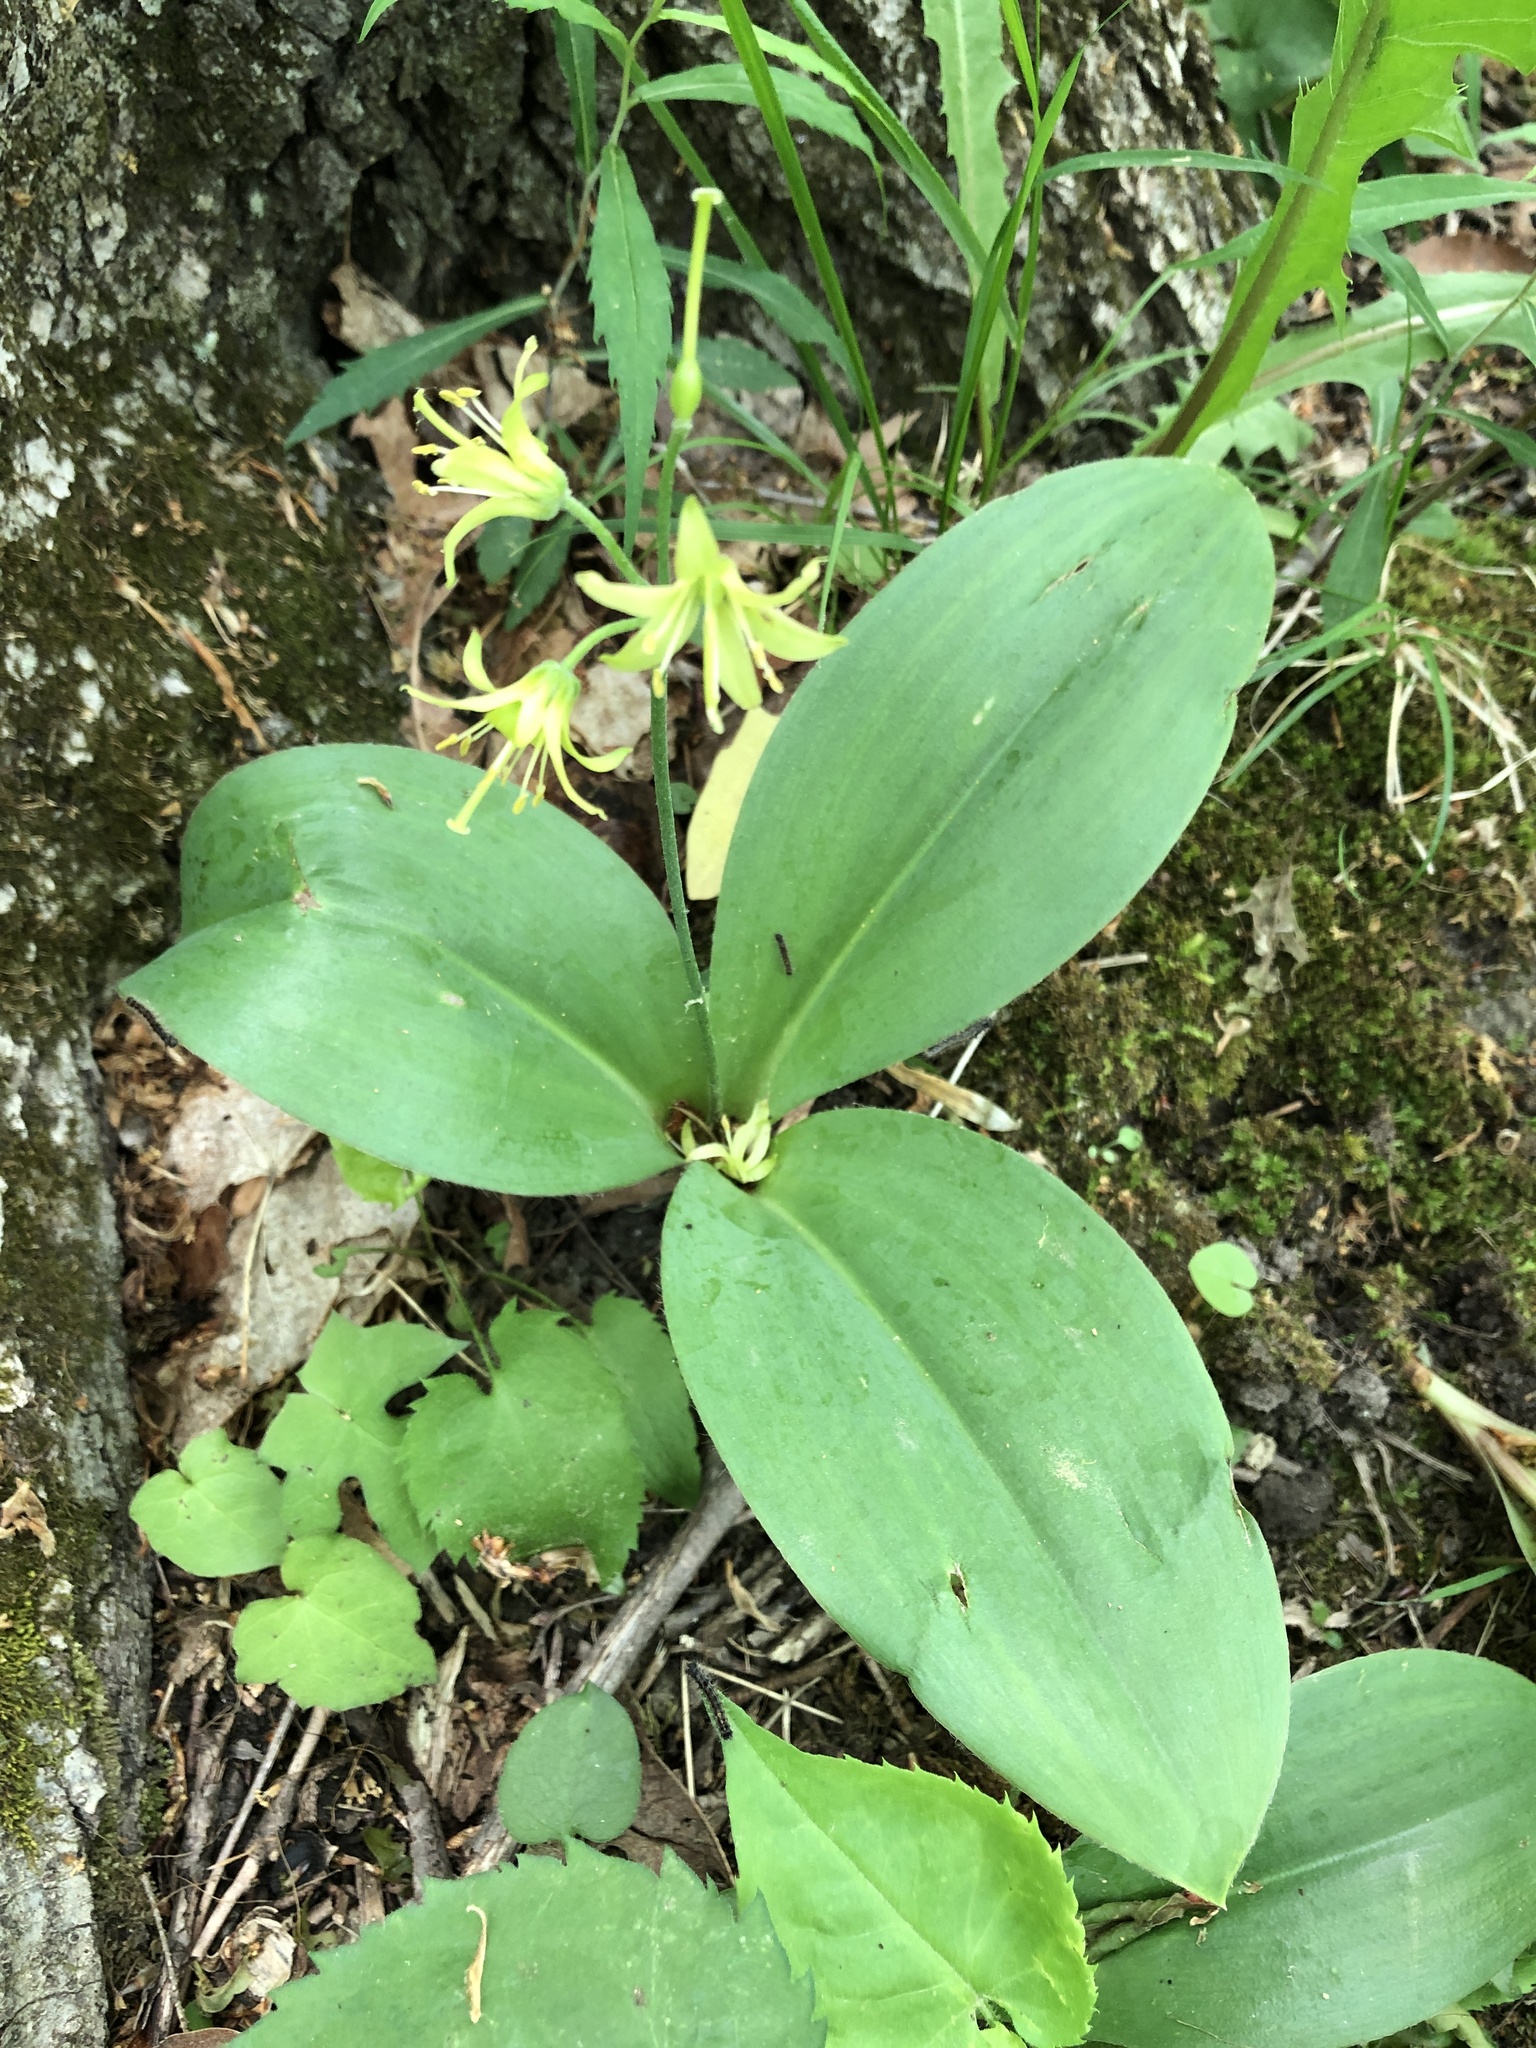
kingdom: Plantae
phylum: Tracheophyta
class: Liliopsida
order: Liliales
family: Liliaceae
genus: Clintonia
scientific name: Clintonia borealis
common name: Yellow clintonia
